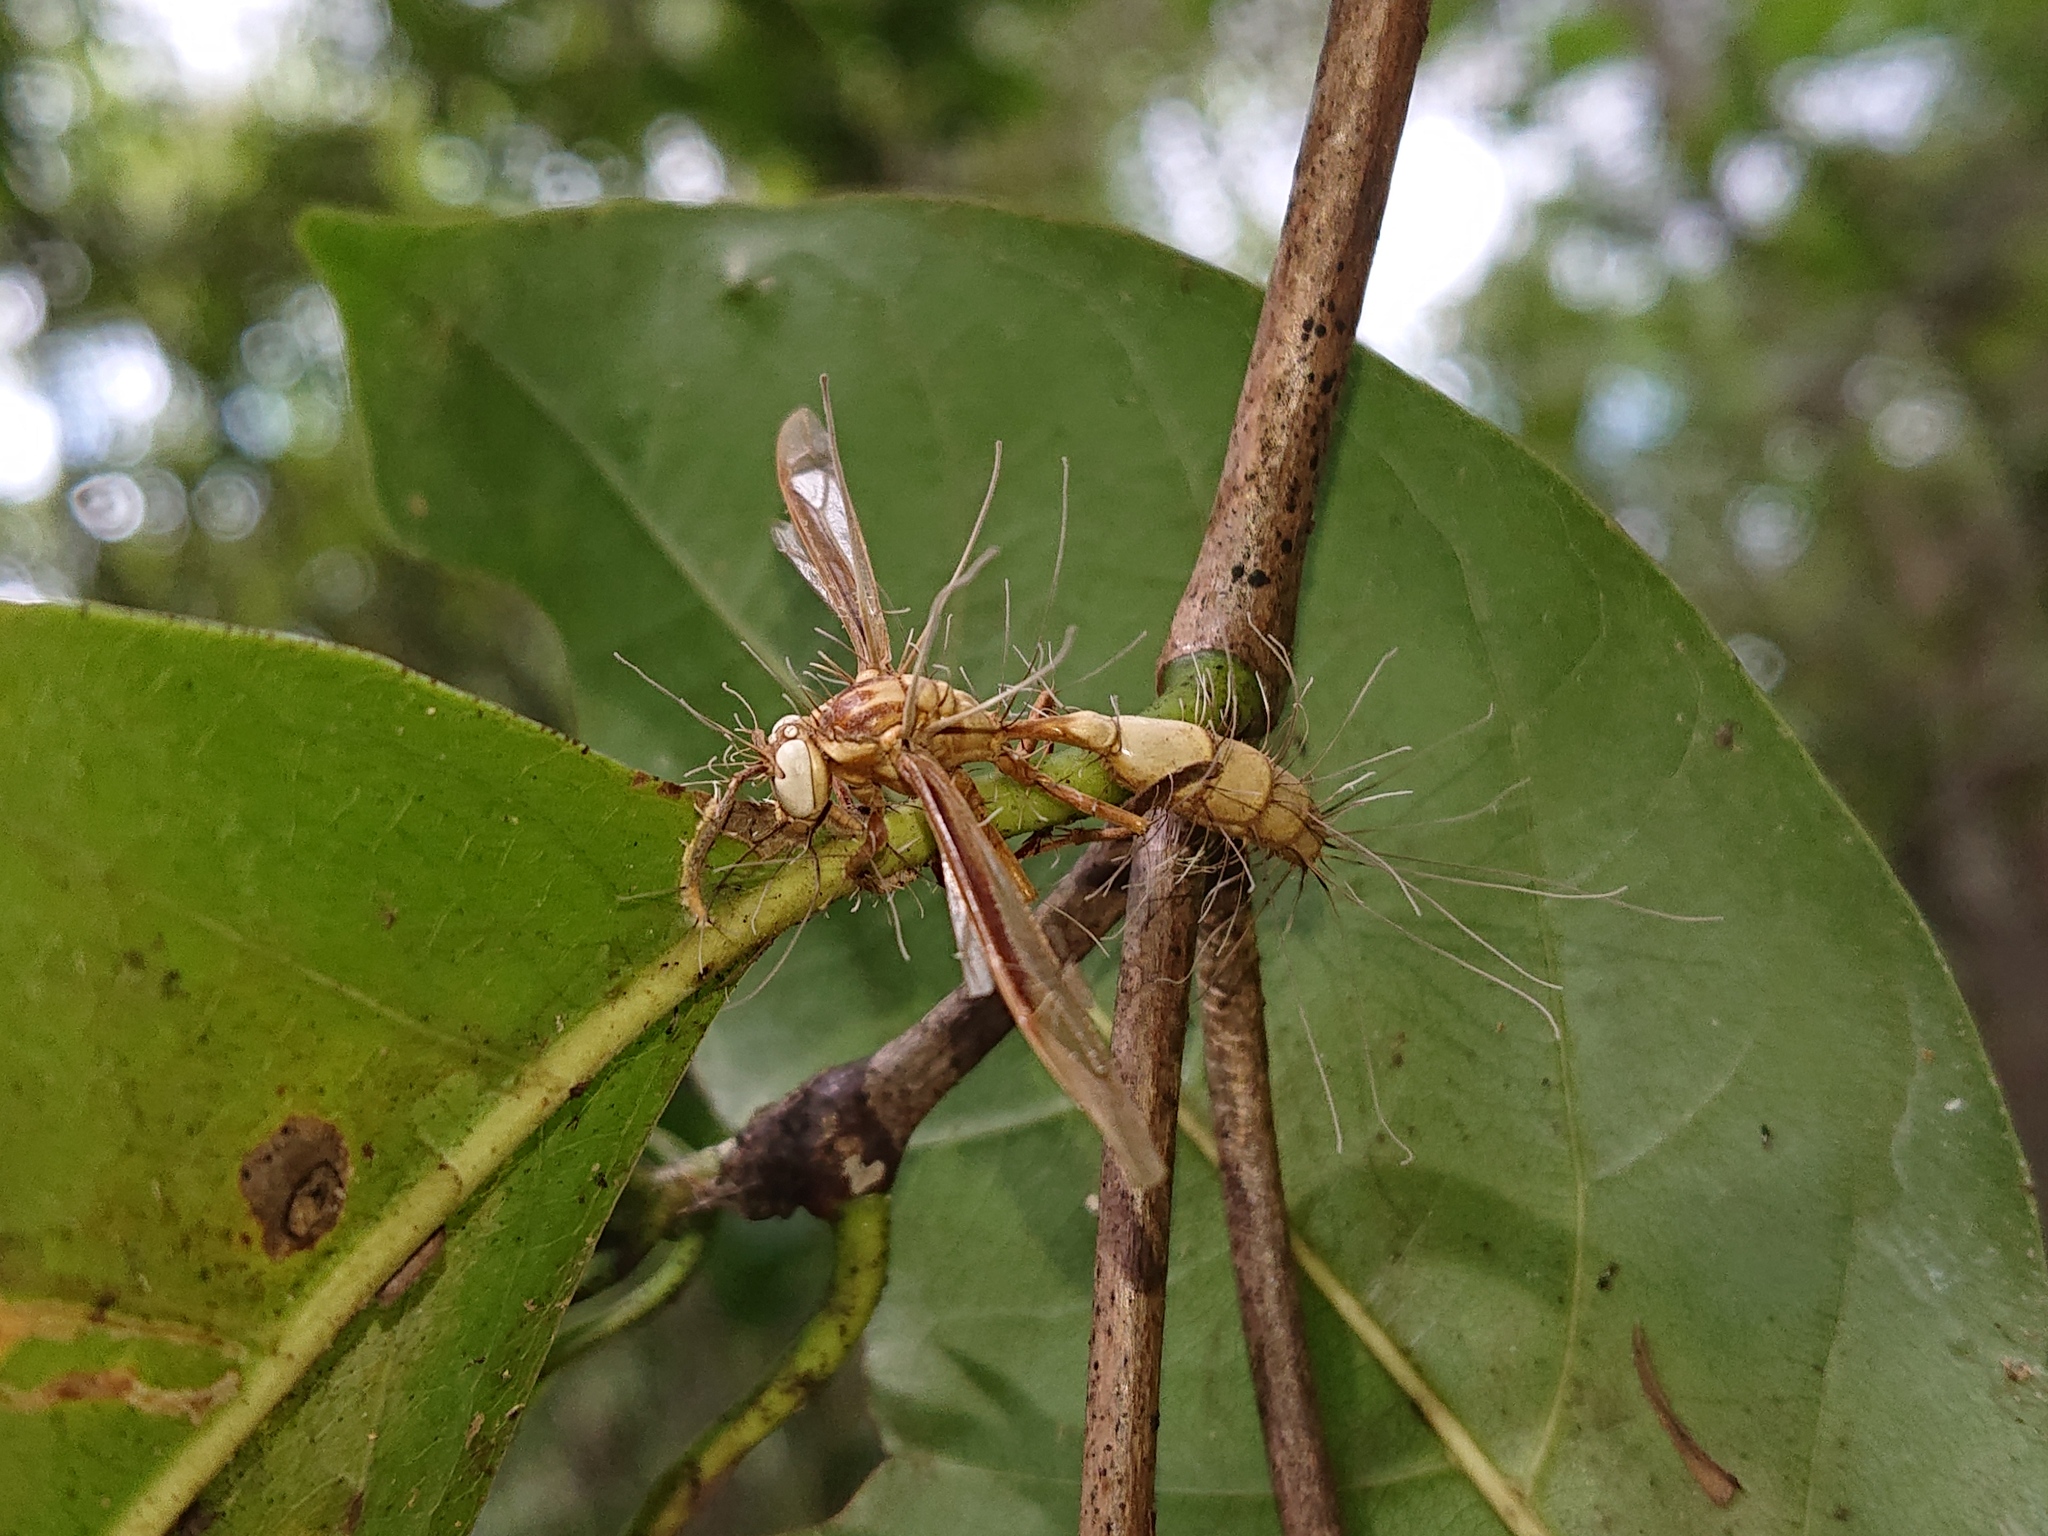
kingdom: Fungi
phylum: Ascomycota
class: Sordariomycetes
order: Hypocreales
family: Ophiocordycipitaceae
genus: Ophiocordyceps
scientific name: Ophiocordyceps humbertii
